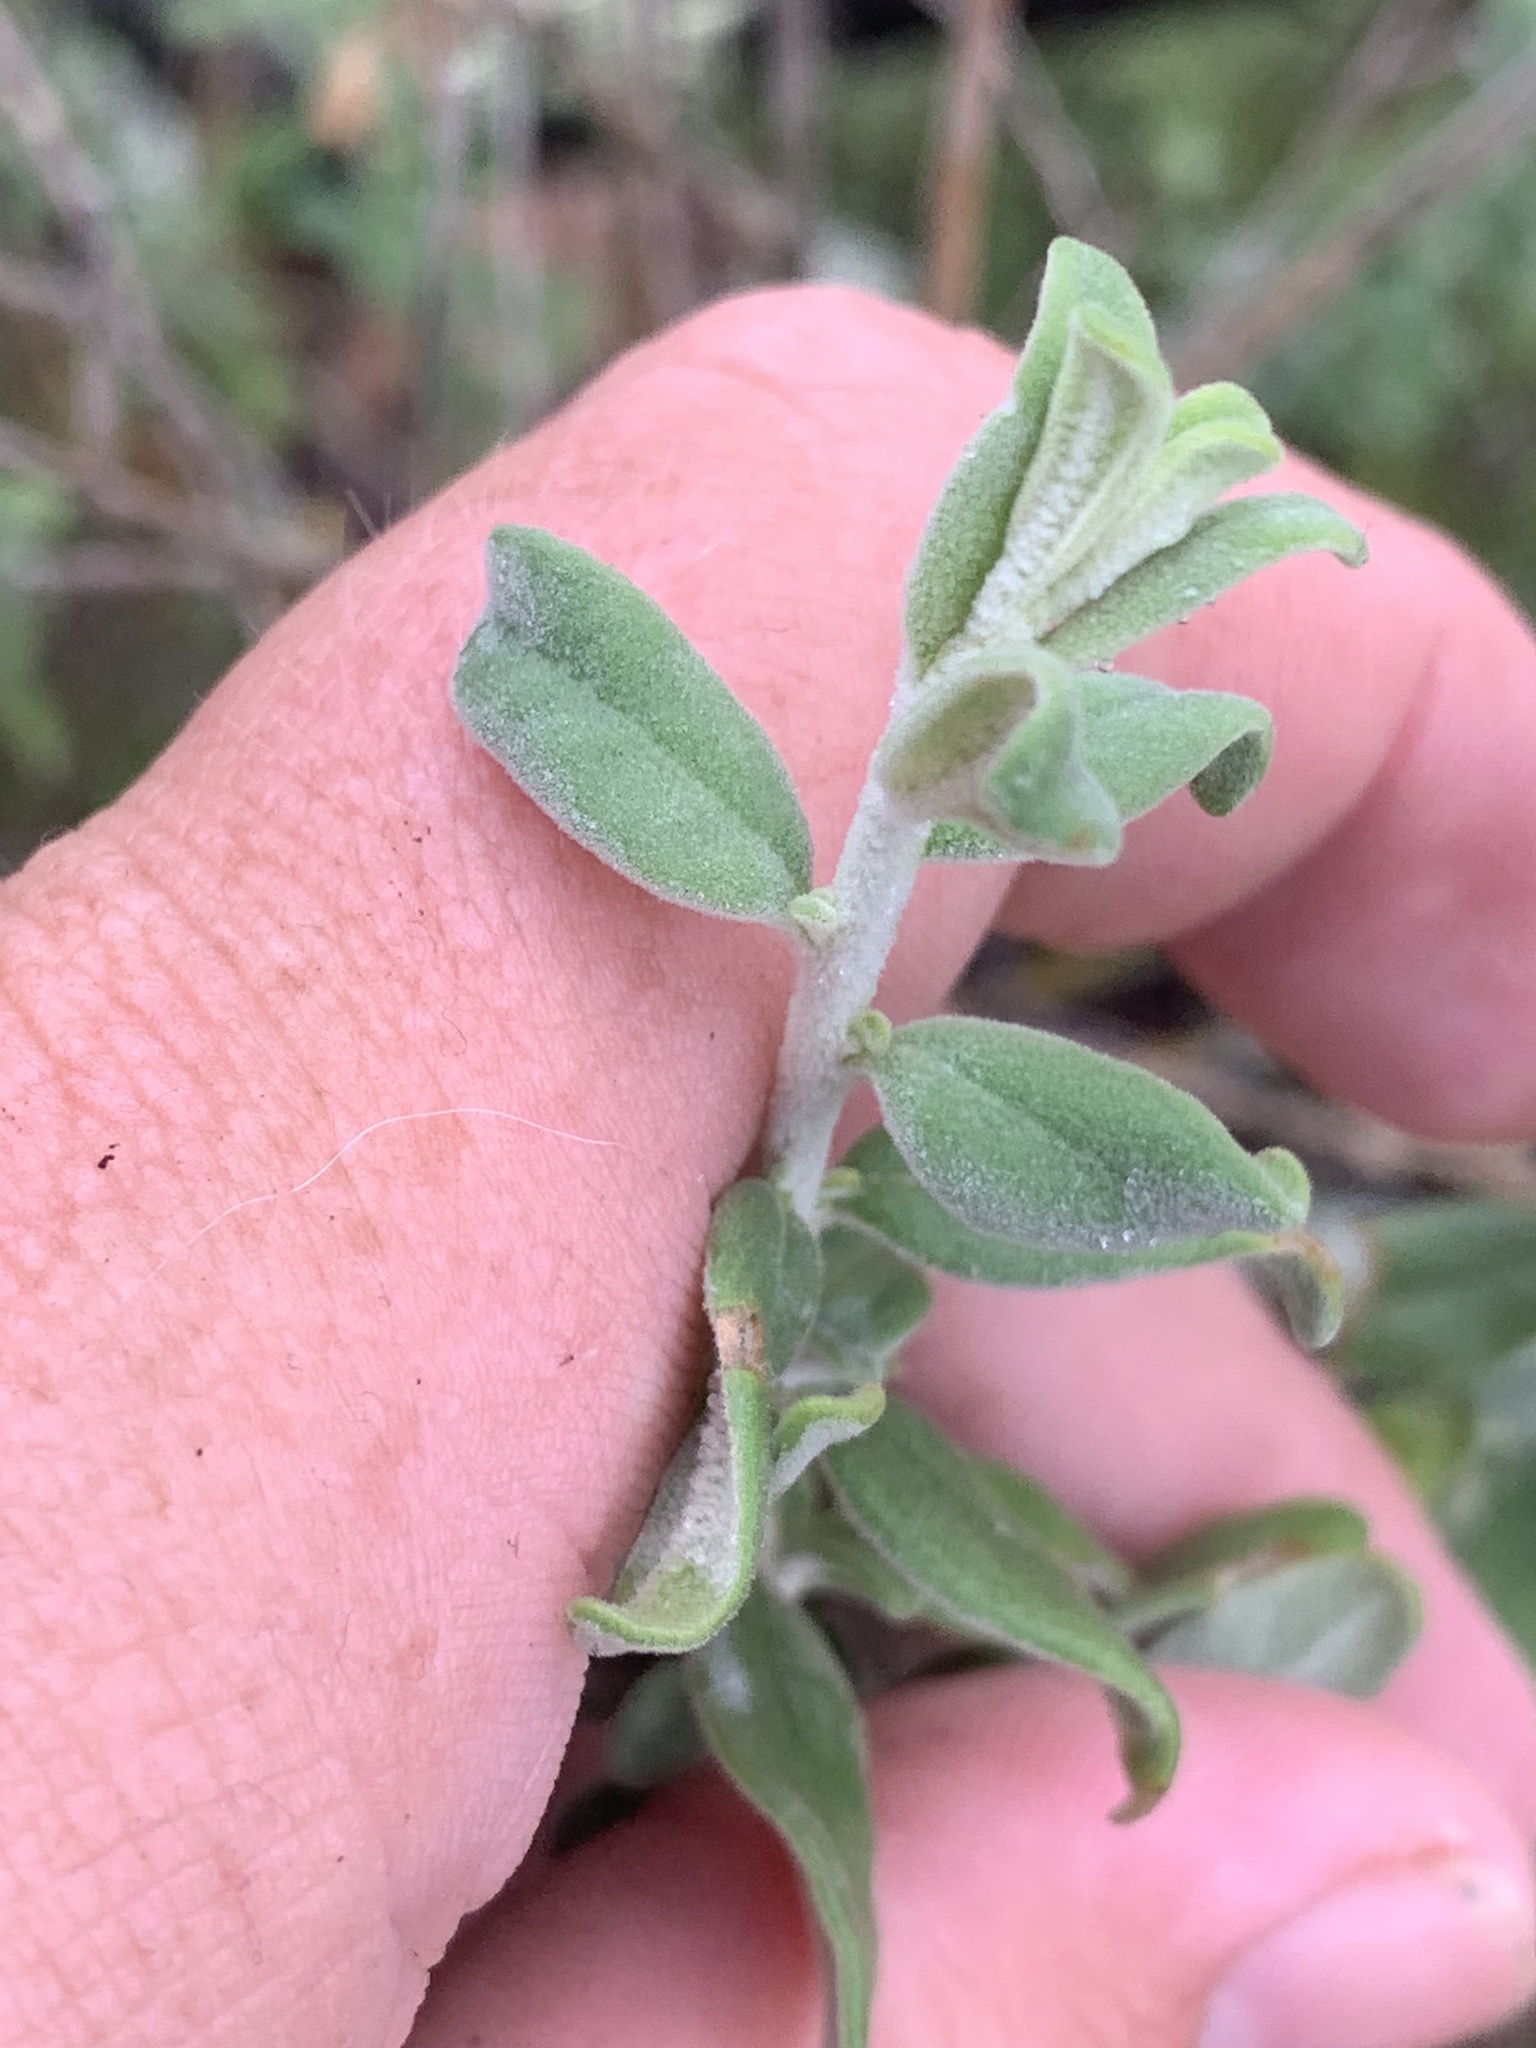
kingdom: Plantae
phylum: Tracheophyta
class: Magnoliopsida
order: Solanales
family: Solanaceae
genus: Cyphanthera
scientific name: Cyphanthera albicans
